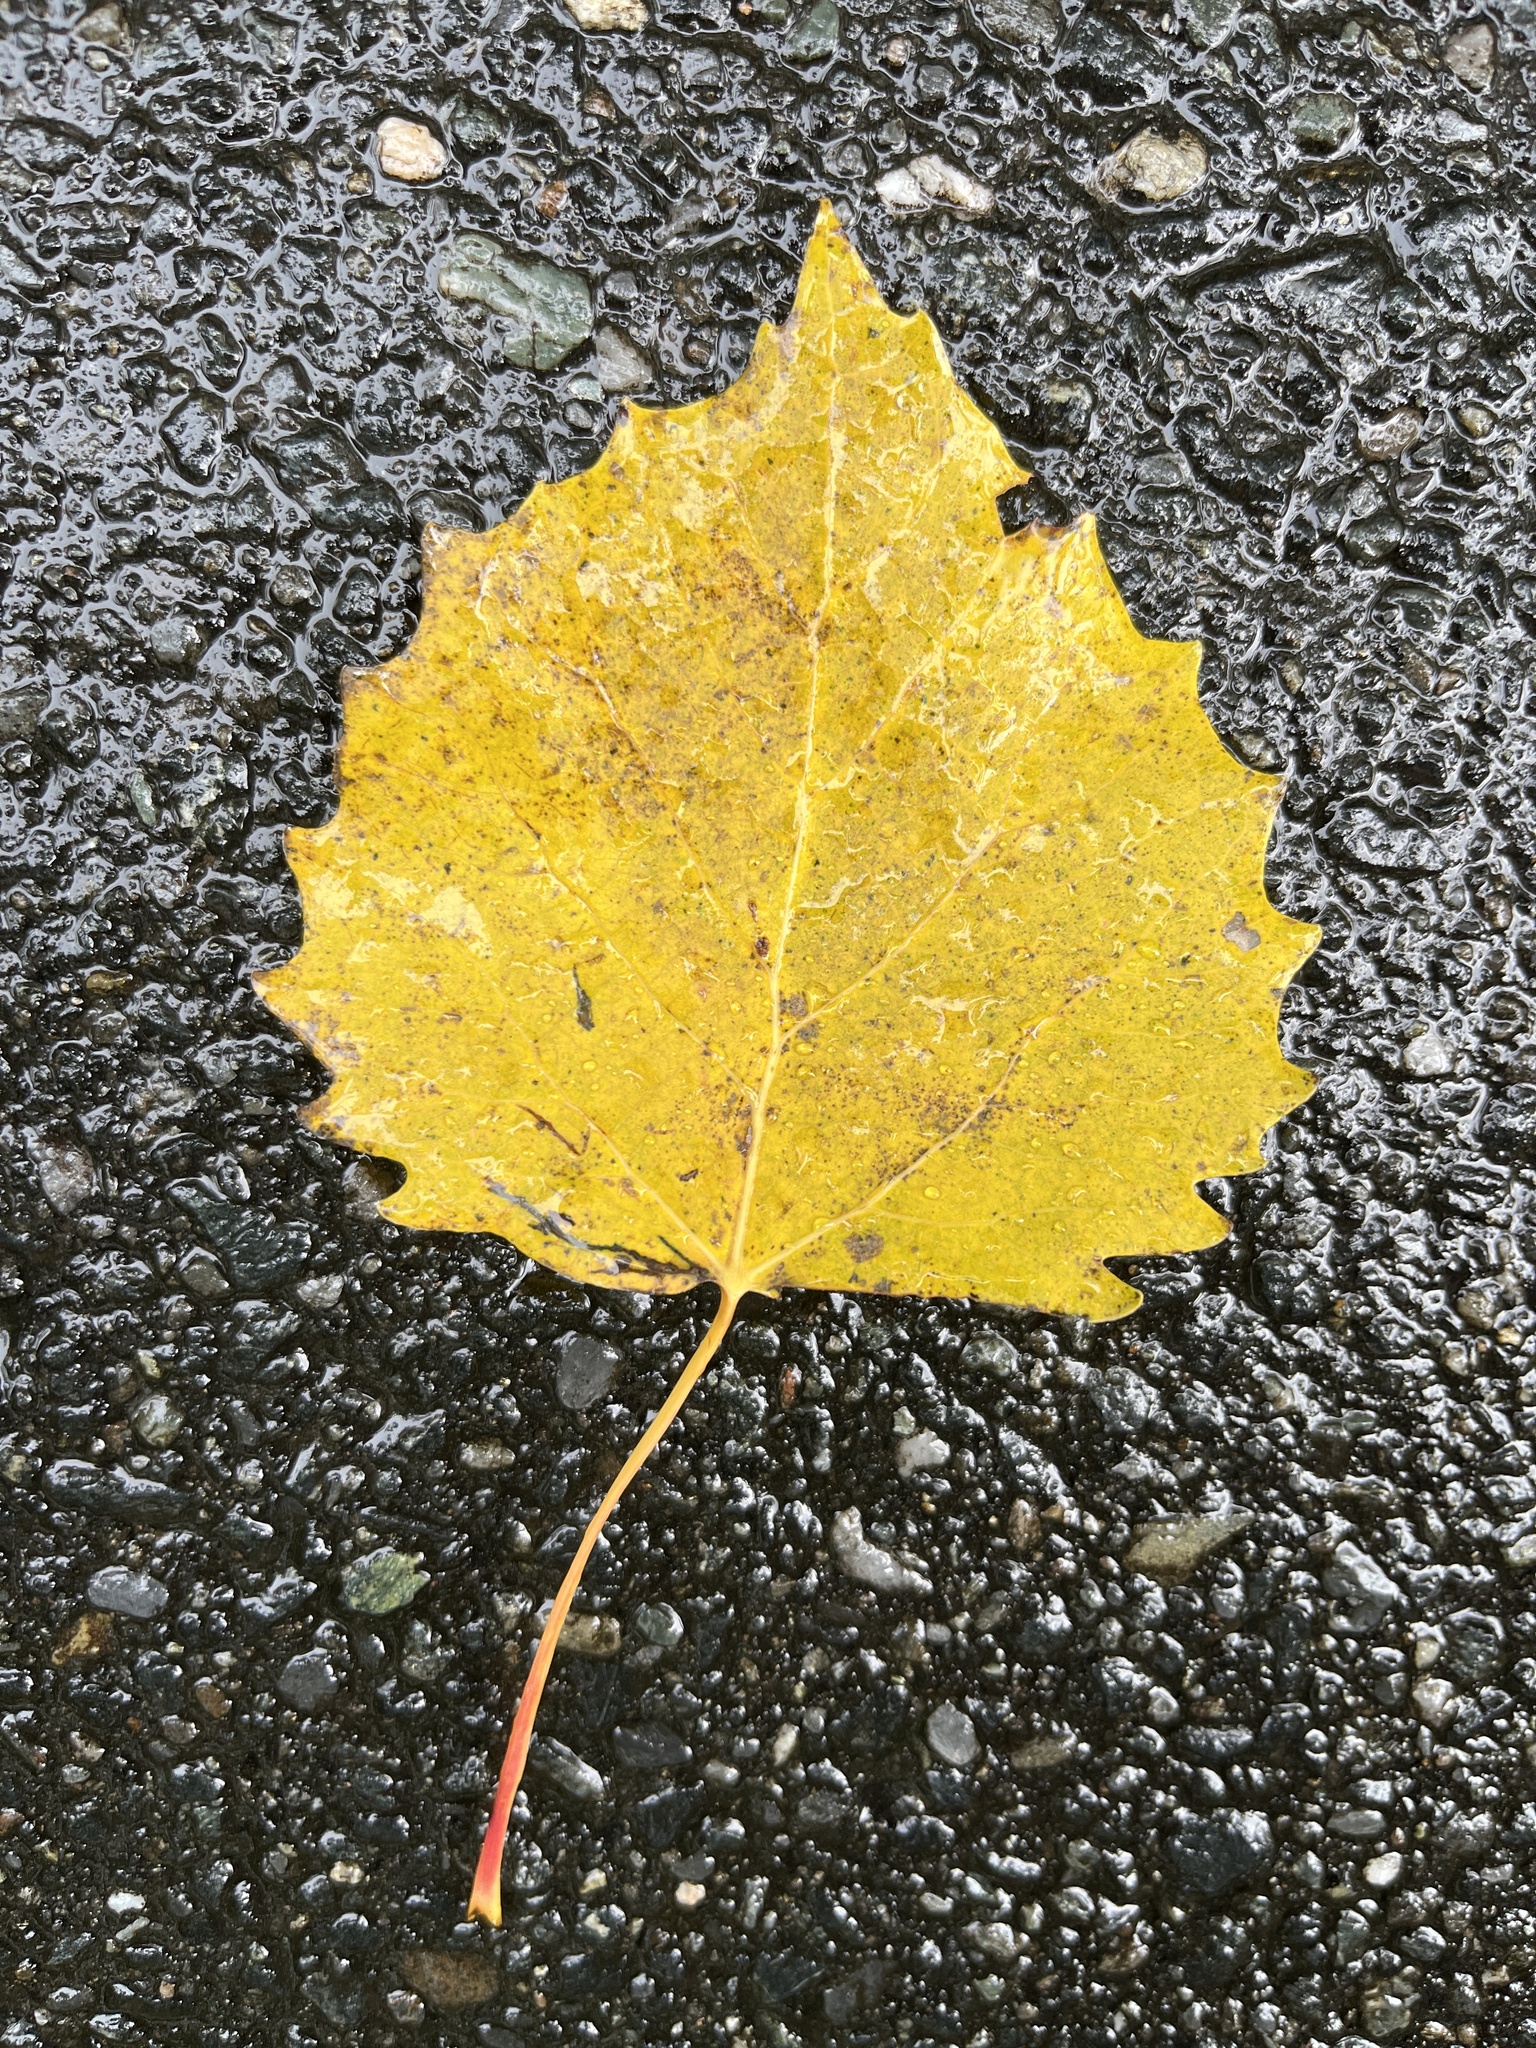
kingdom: Plantae
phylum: Tracheophyta
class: Magnoliopsida
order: Malpighiales
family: Salicaceae
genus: Populus
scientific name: Populus grandidentata
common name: Bigtooth aspen
